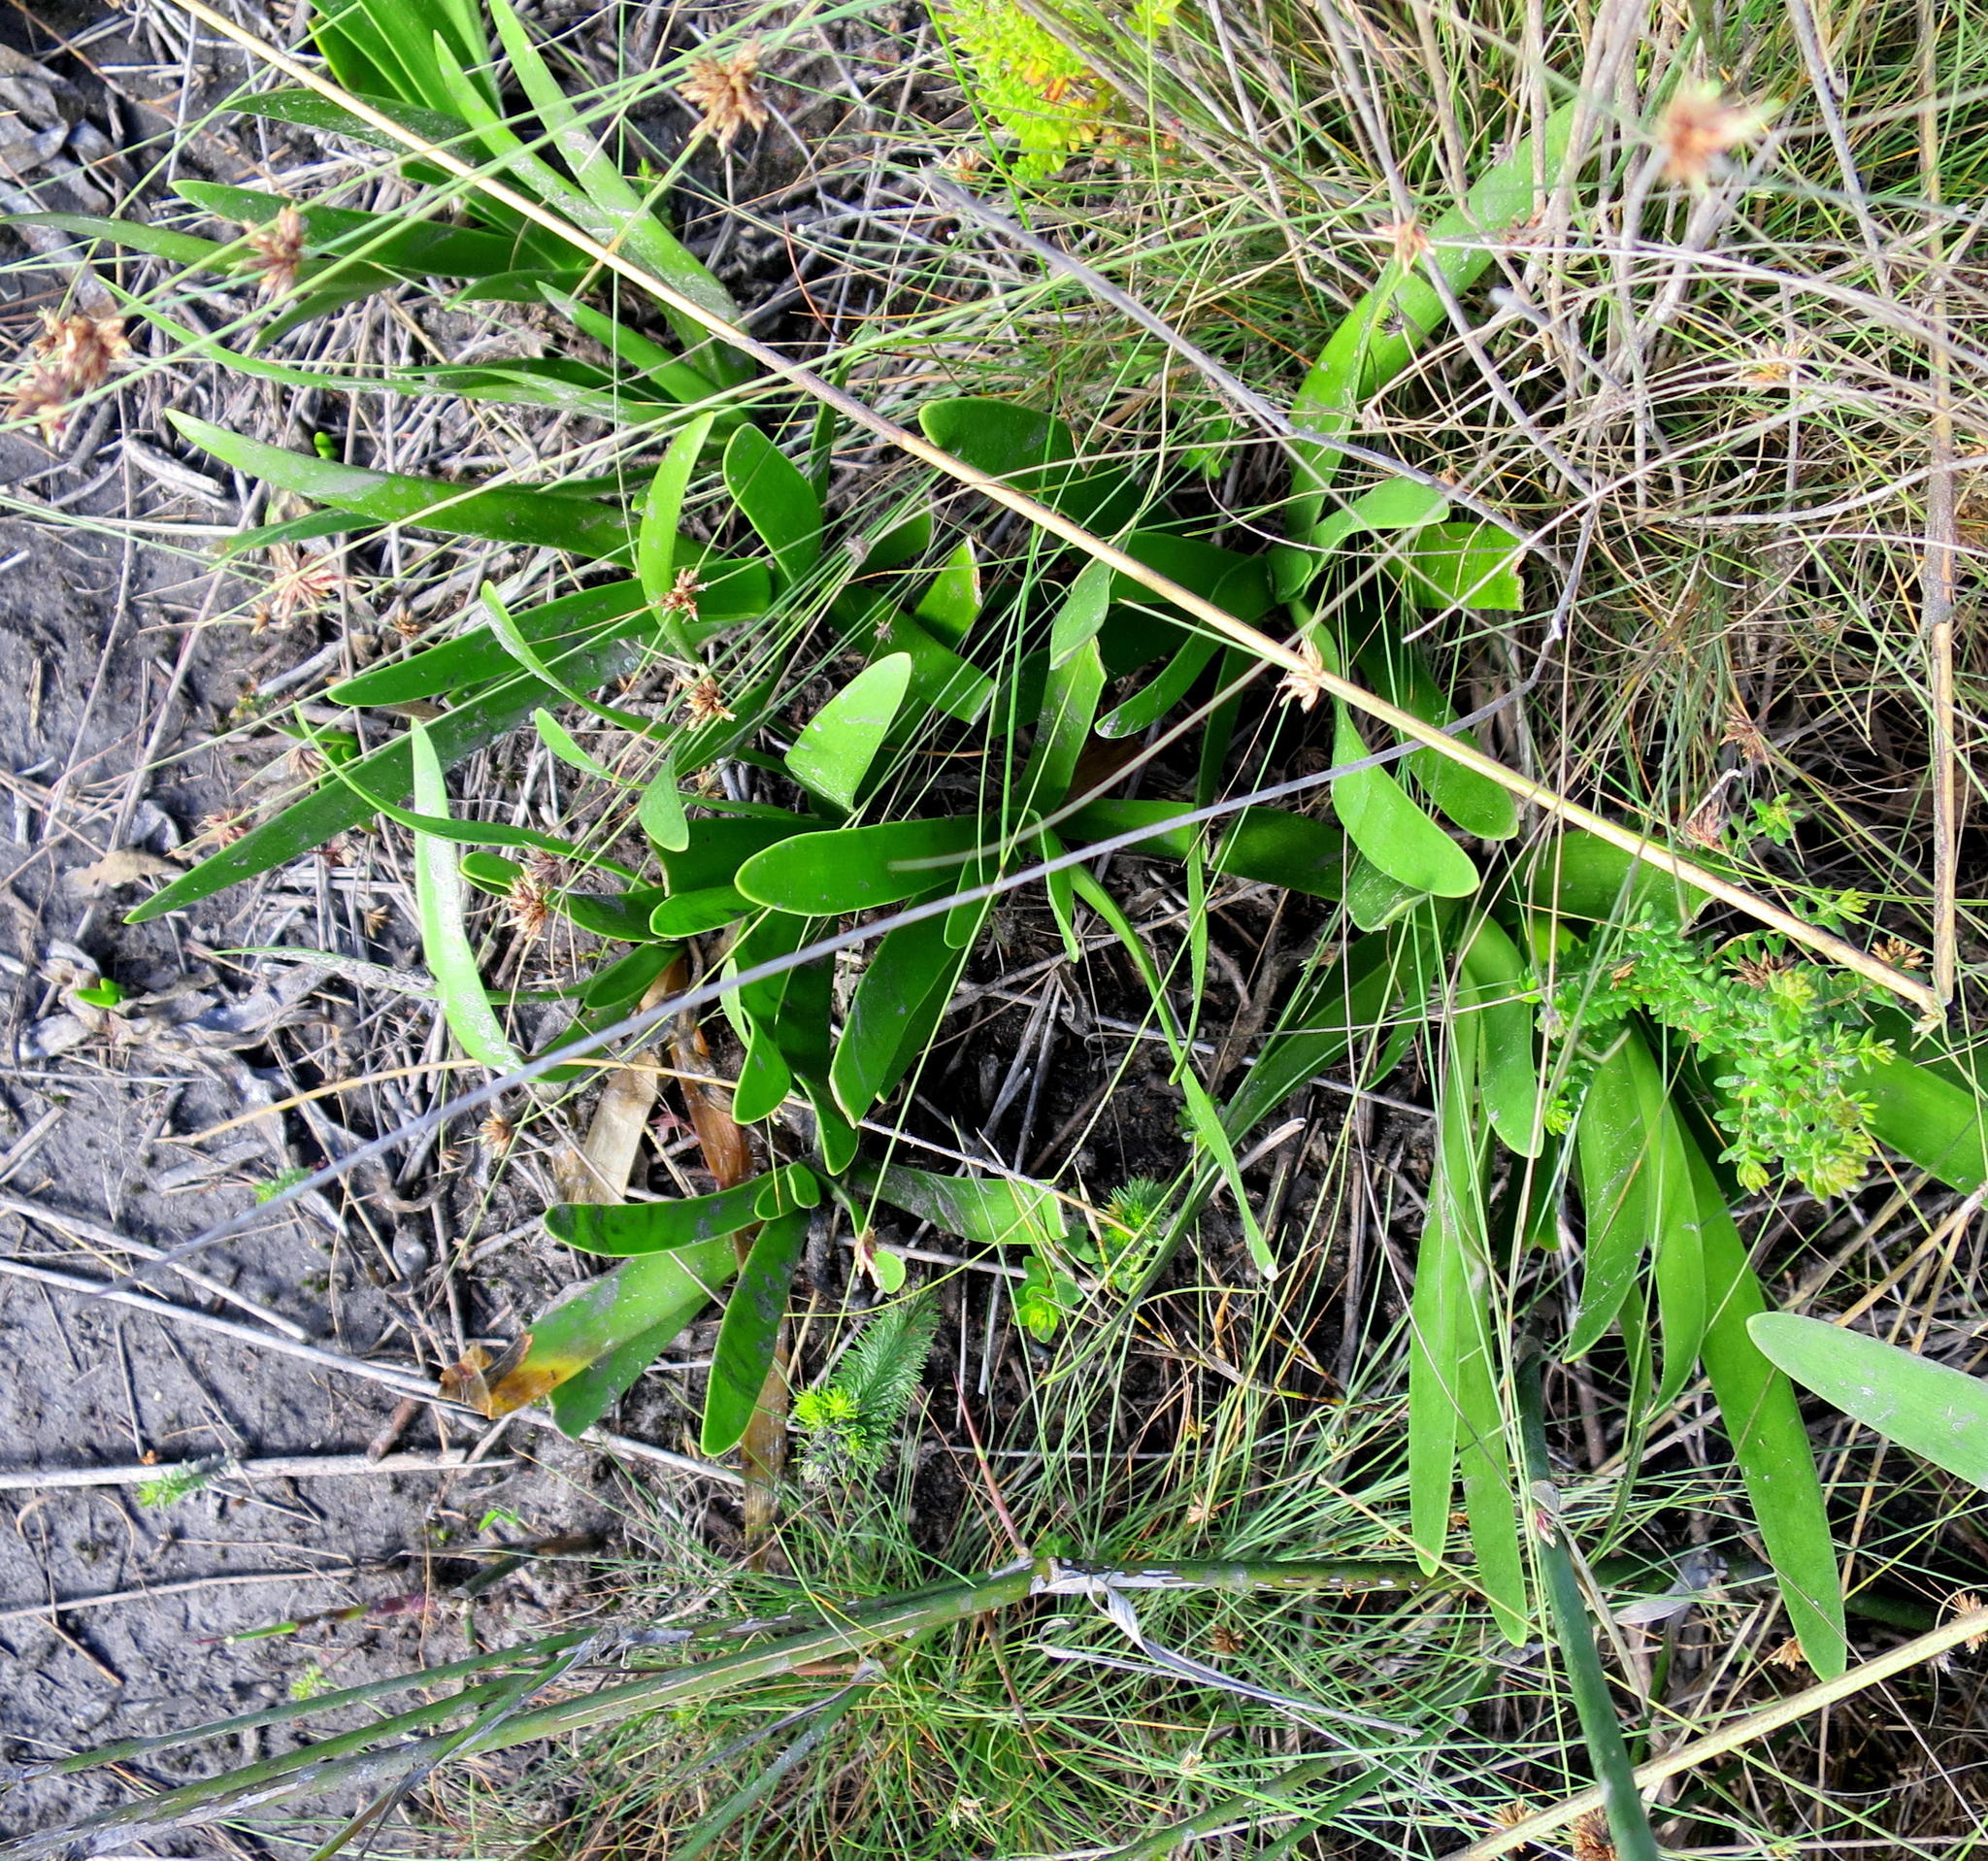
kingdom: Plantae
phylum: Tracheophyta
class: Liliopsida
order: Asparagales
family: Amaryllidaceae
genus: Agapanthus
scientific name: Agapanthus praecox
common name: African-lily
